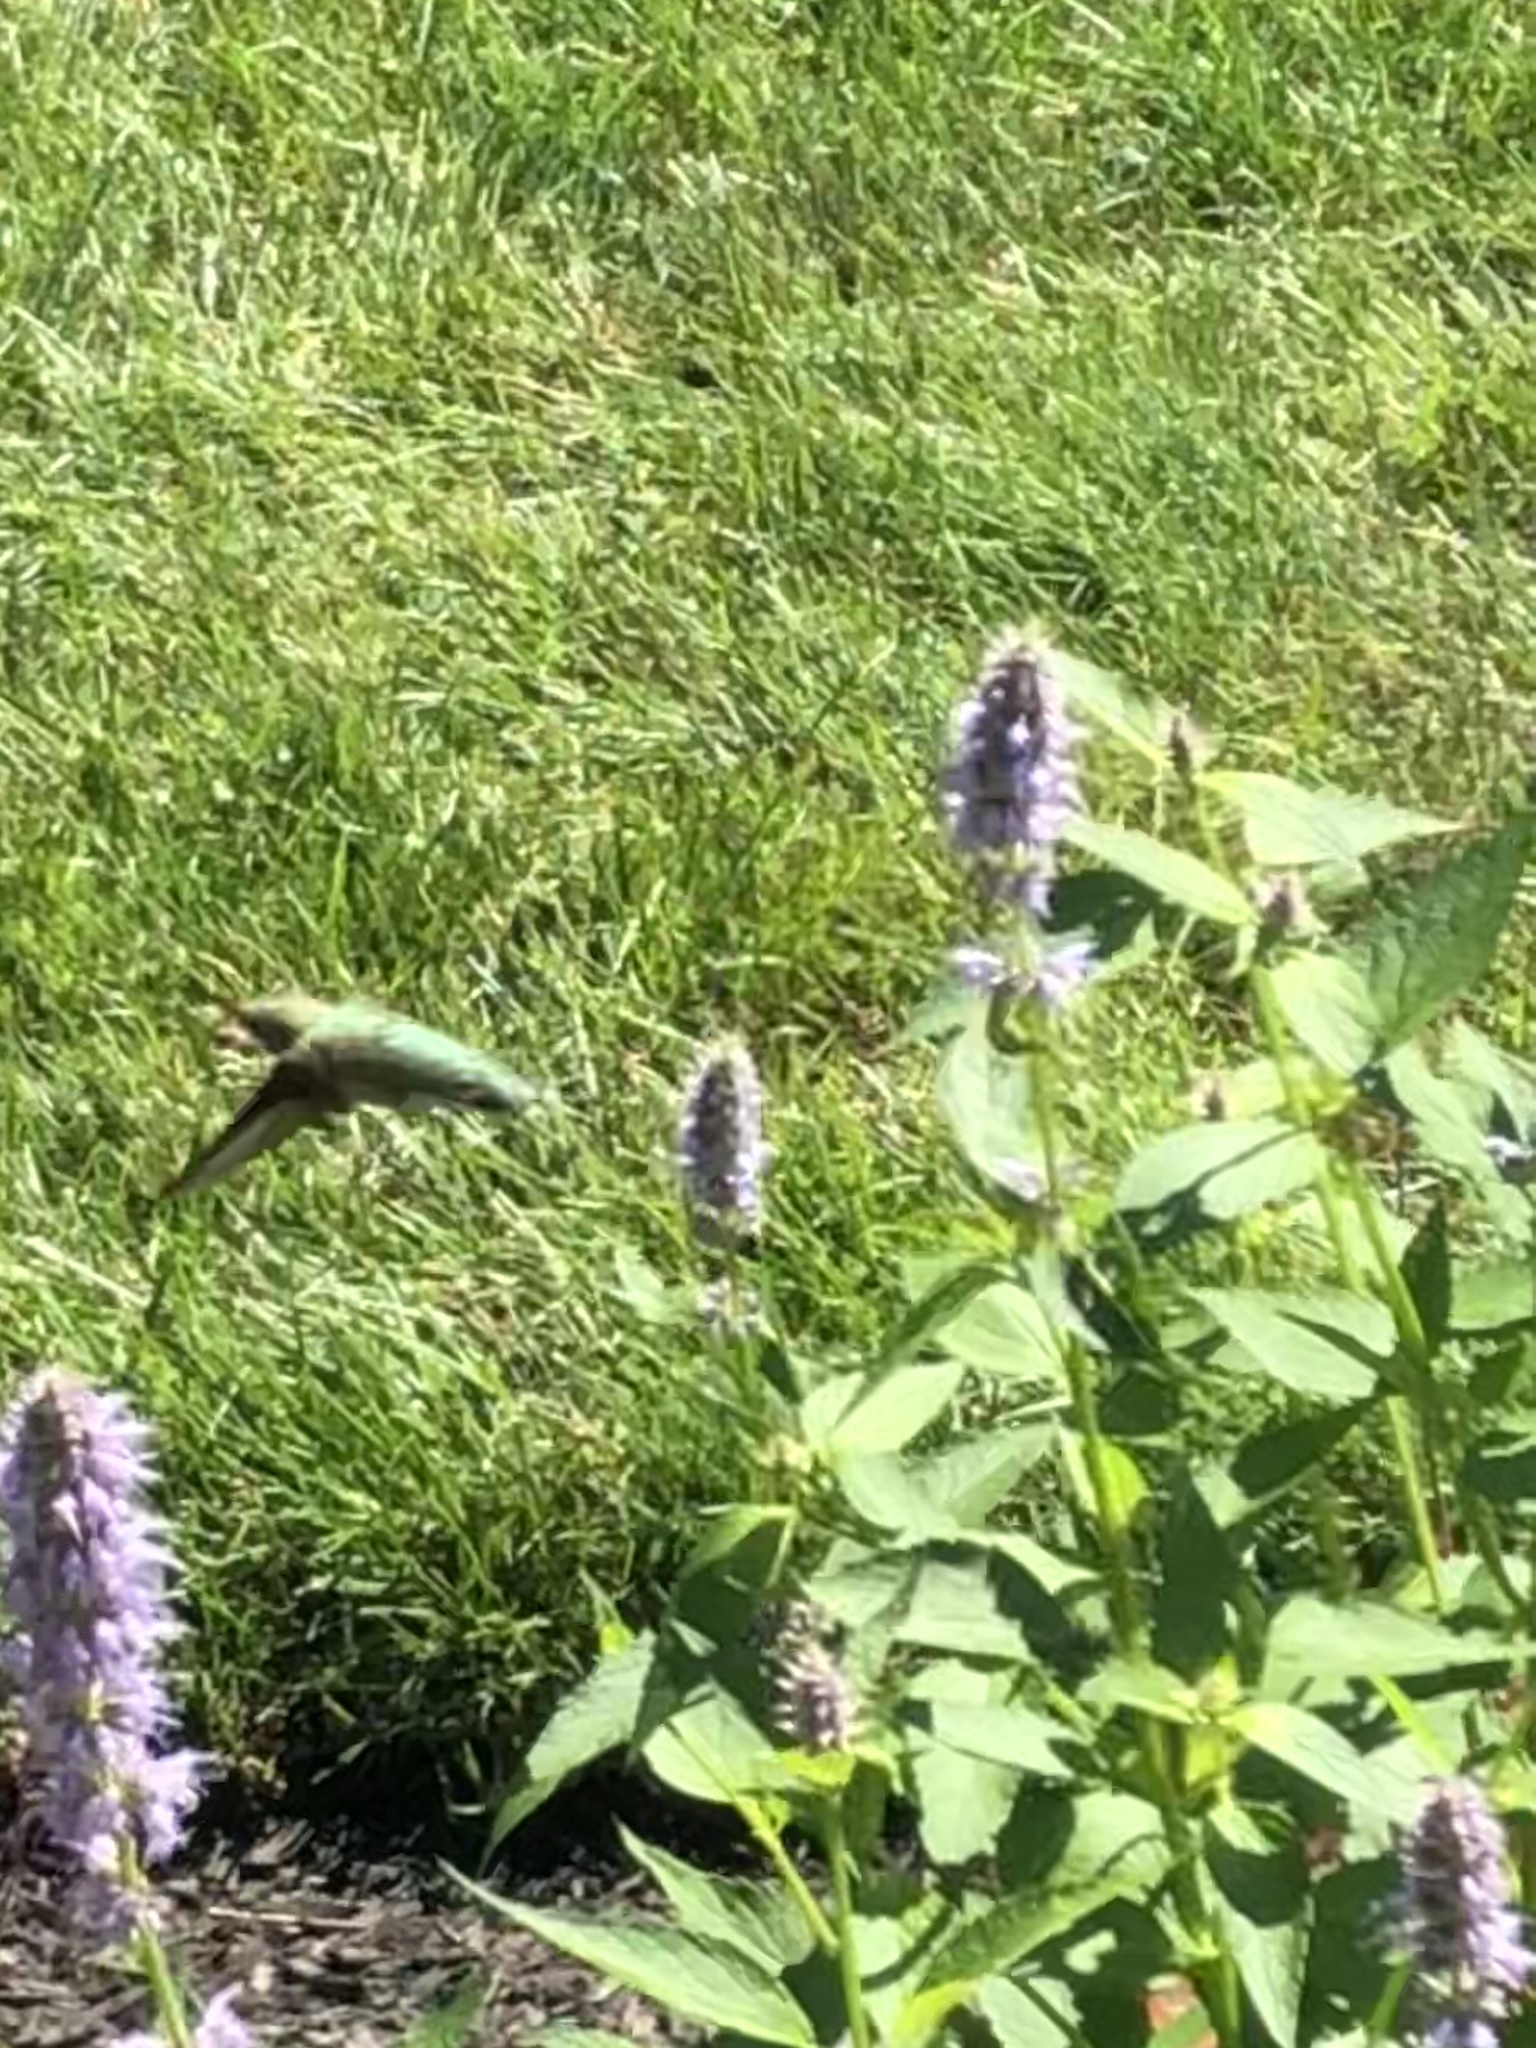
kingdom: Animalia
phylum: Chordata
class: Aves
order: Apodiformes
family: Trochilidae
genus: Archilochus
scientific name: Archilochus colubris
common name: Ruby-throated hummingbird
